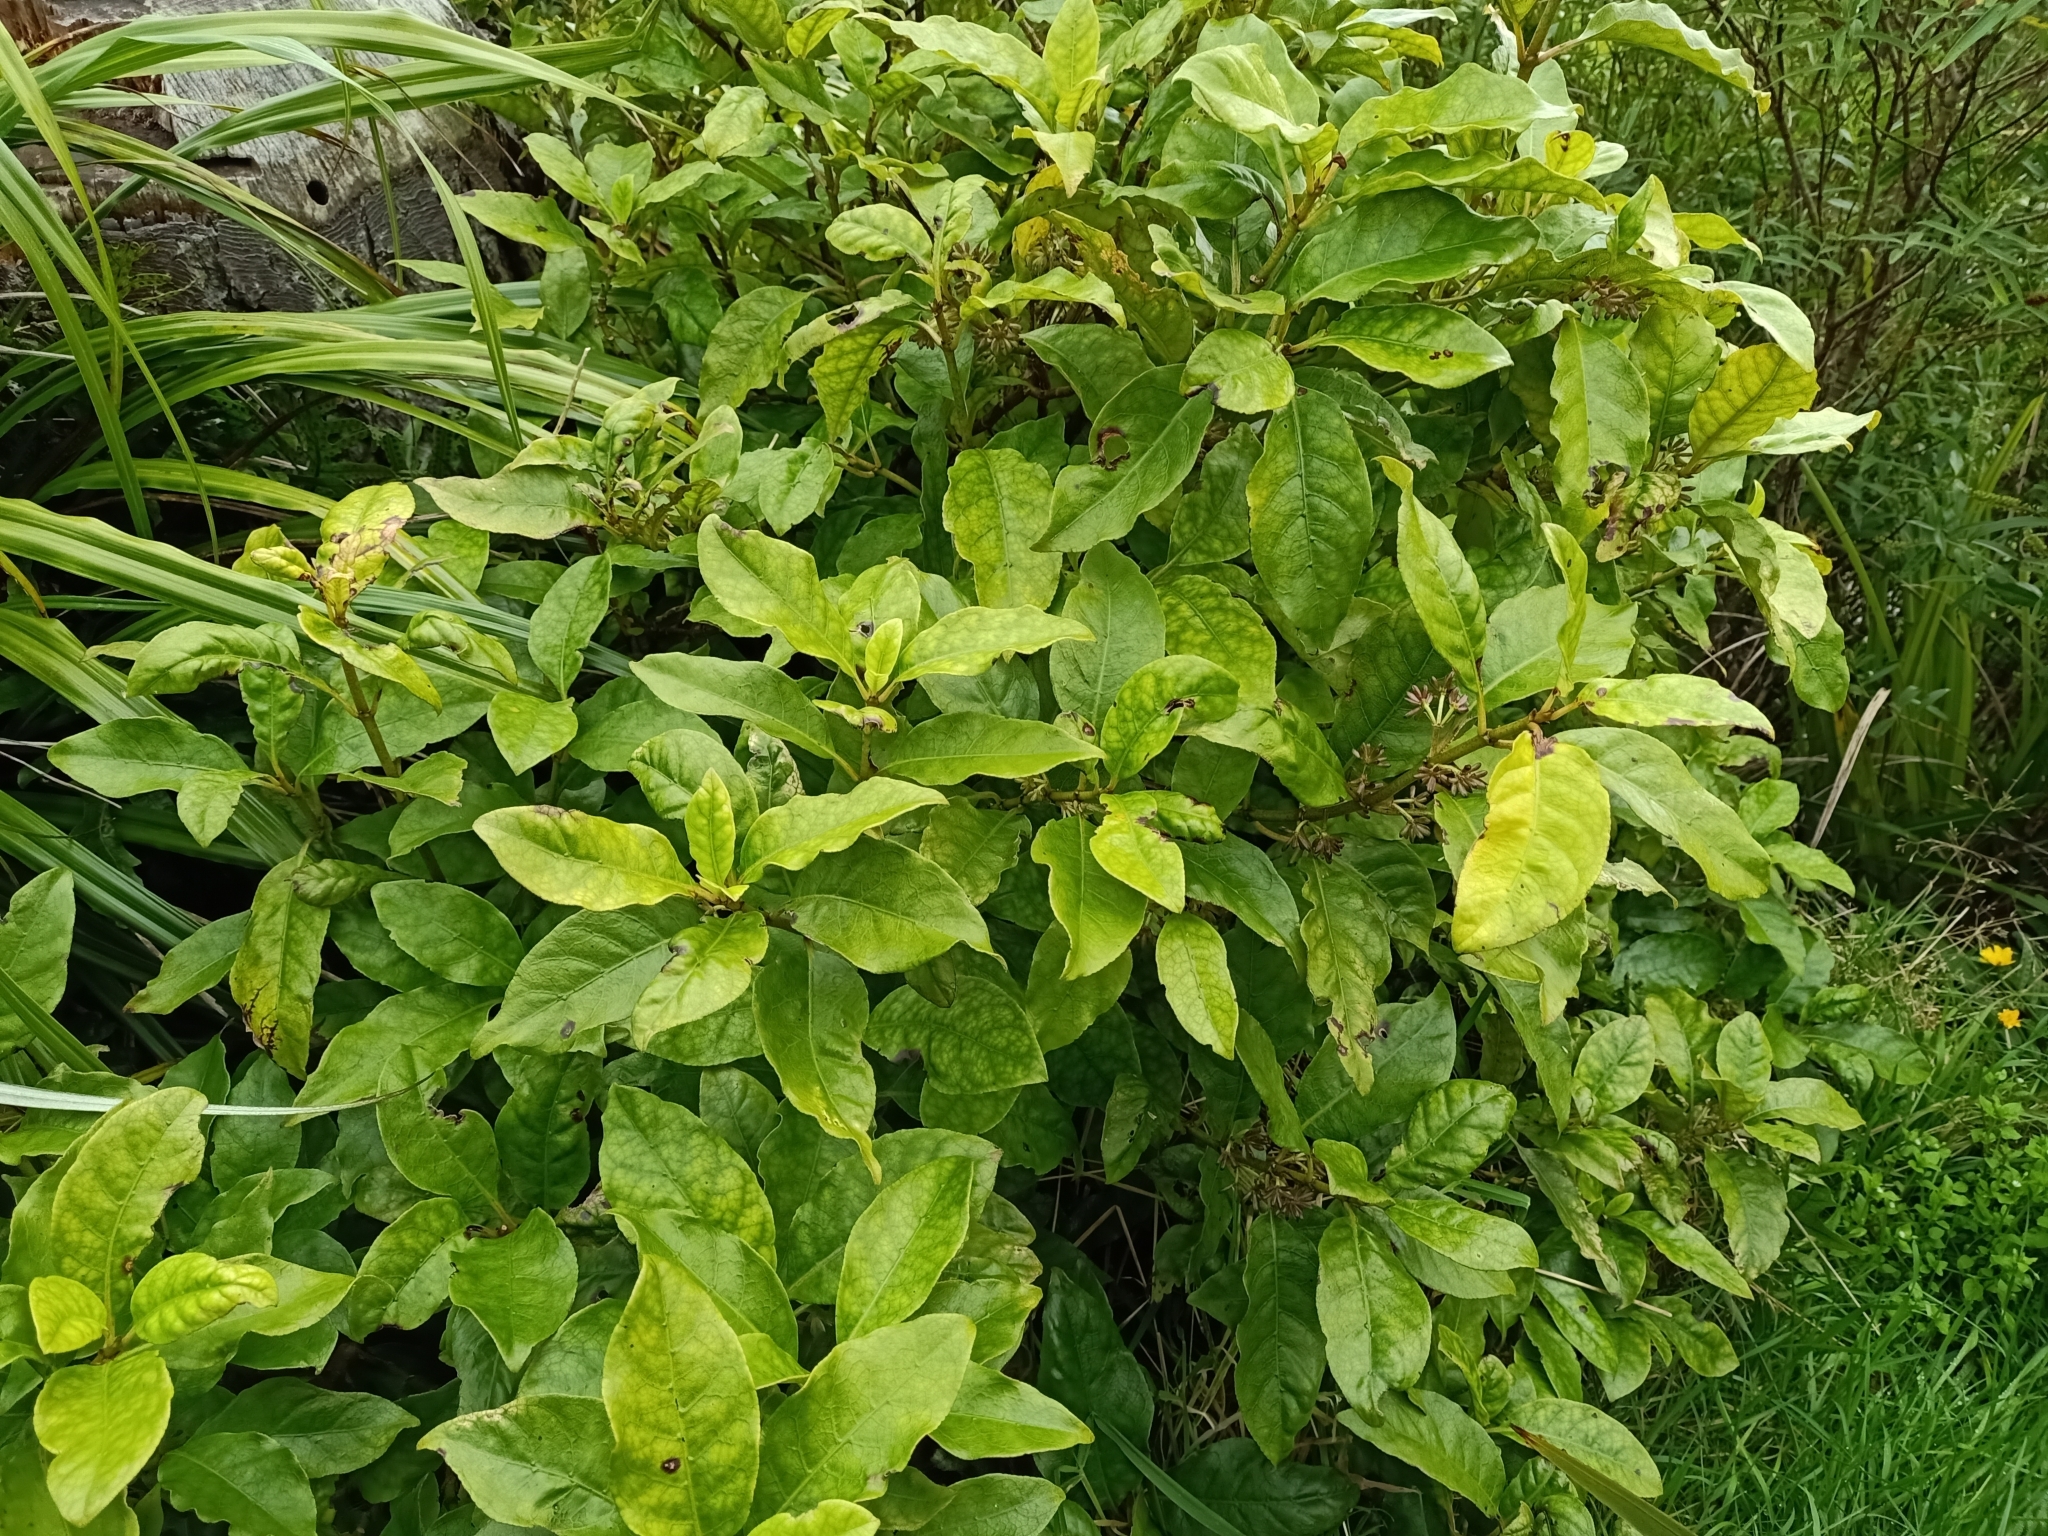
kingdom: Plantae
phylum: Tracheophyta
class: Magnoliopsida
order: Gentianales
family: Rubiaceae
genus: Coprosma
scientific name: Coprosma autumnalis
